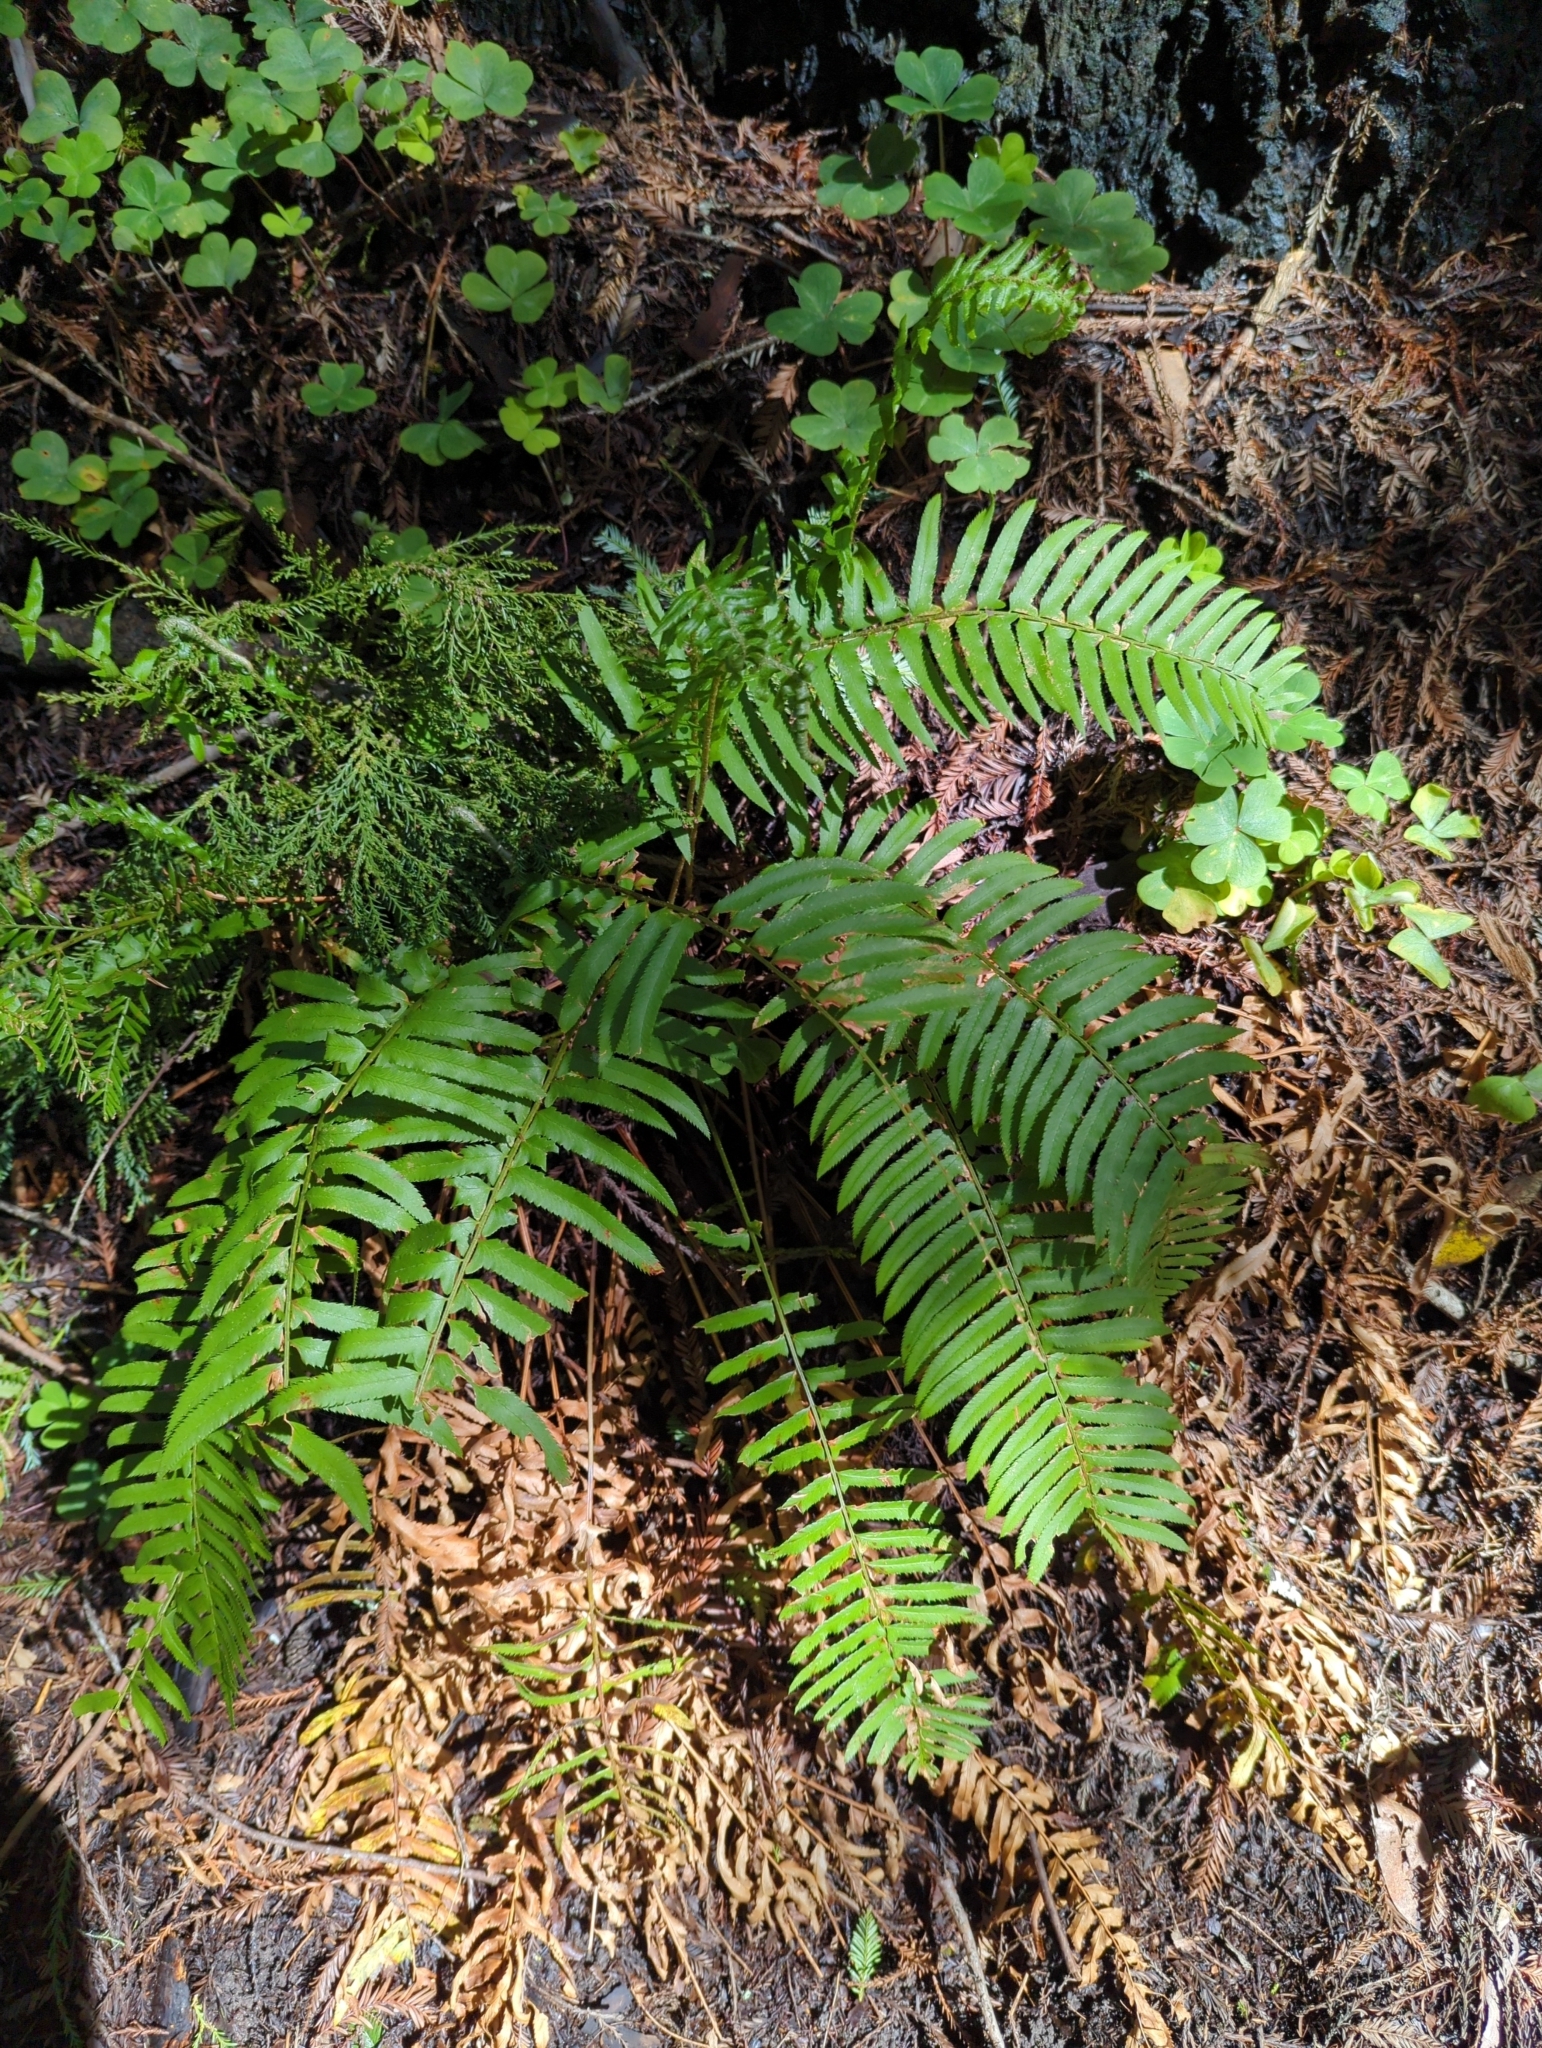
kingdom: Plantae
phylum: Tracheophyta
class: Polypodiopsida
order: Polypodiales
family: Dryopteridaceae
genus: Polystichum
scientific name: Polystichum munitum
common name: Western sword-fern
